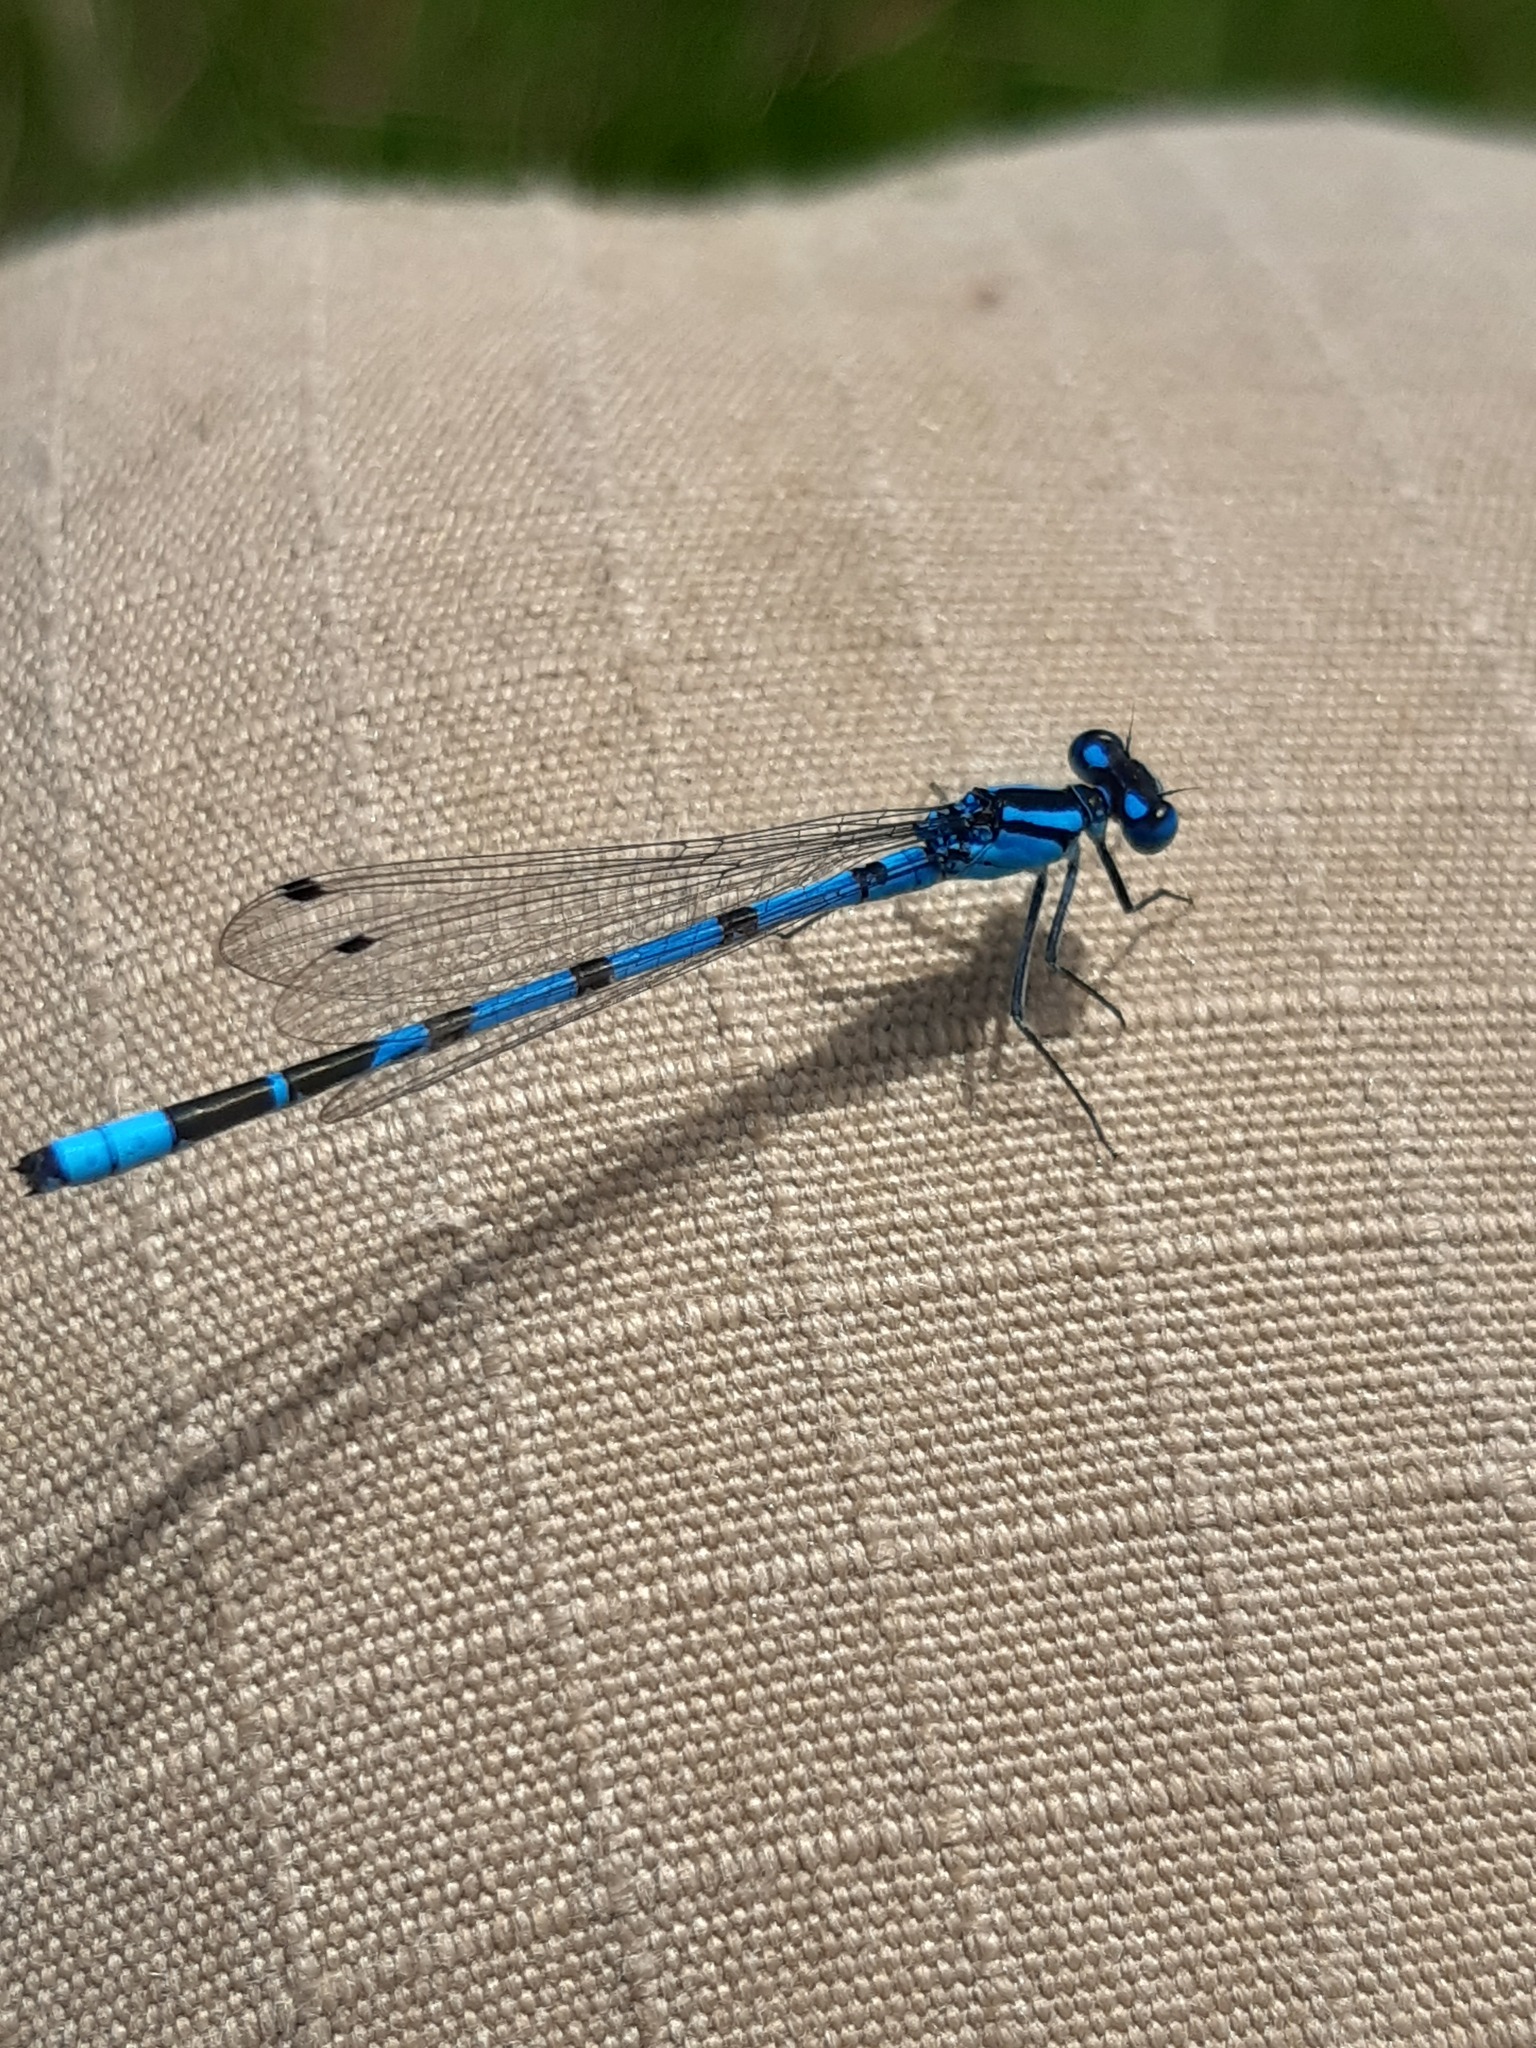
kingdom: Animalia
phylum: Arthropoda
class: Insecta
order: Odonata
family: Coenagrionidae
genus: Enallagma
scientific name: Enallagma cyathigerum
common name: Common blue damselfly
